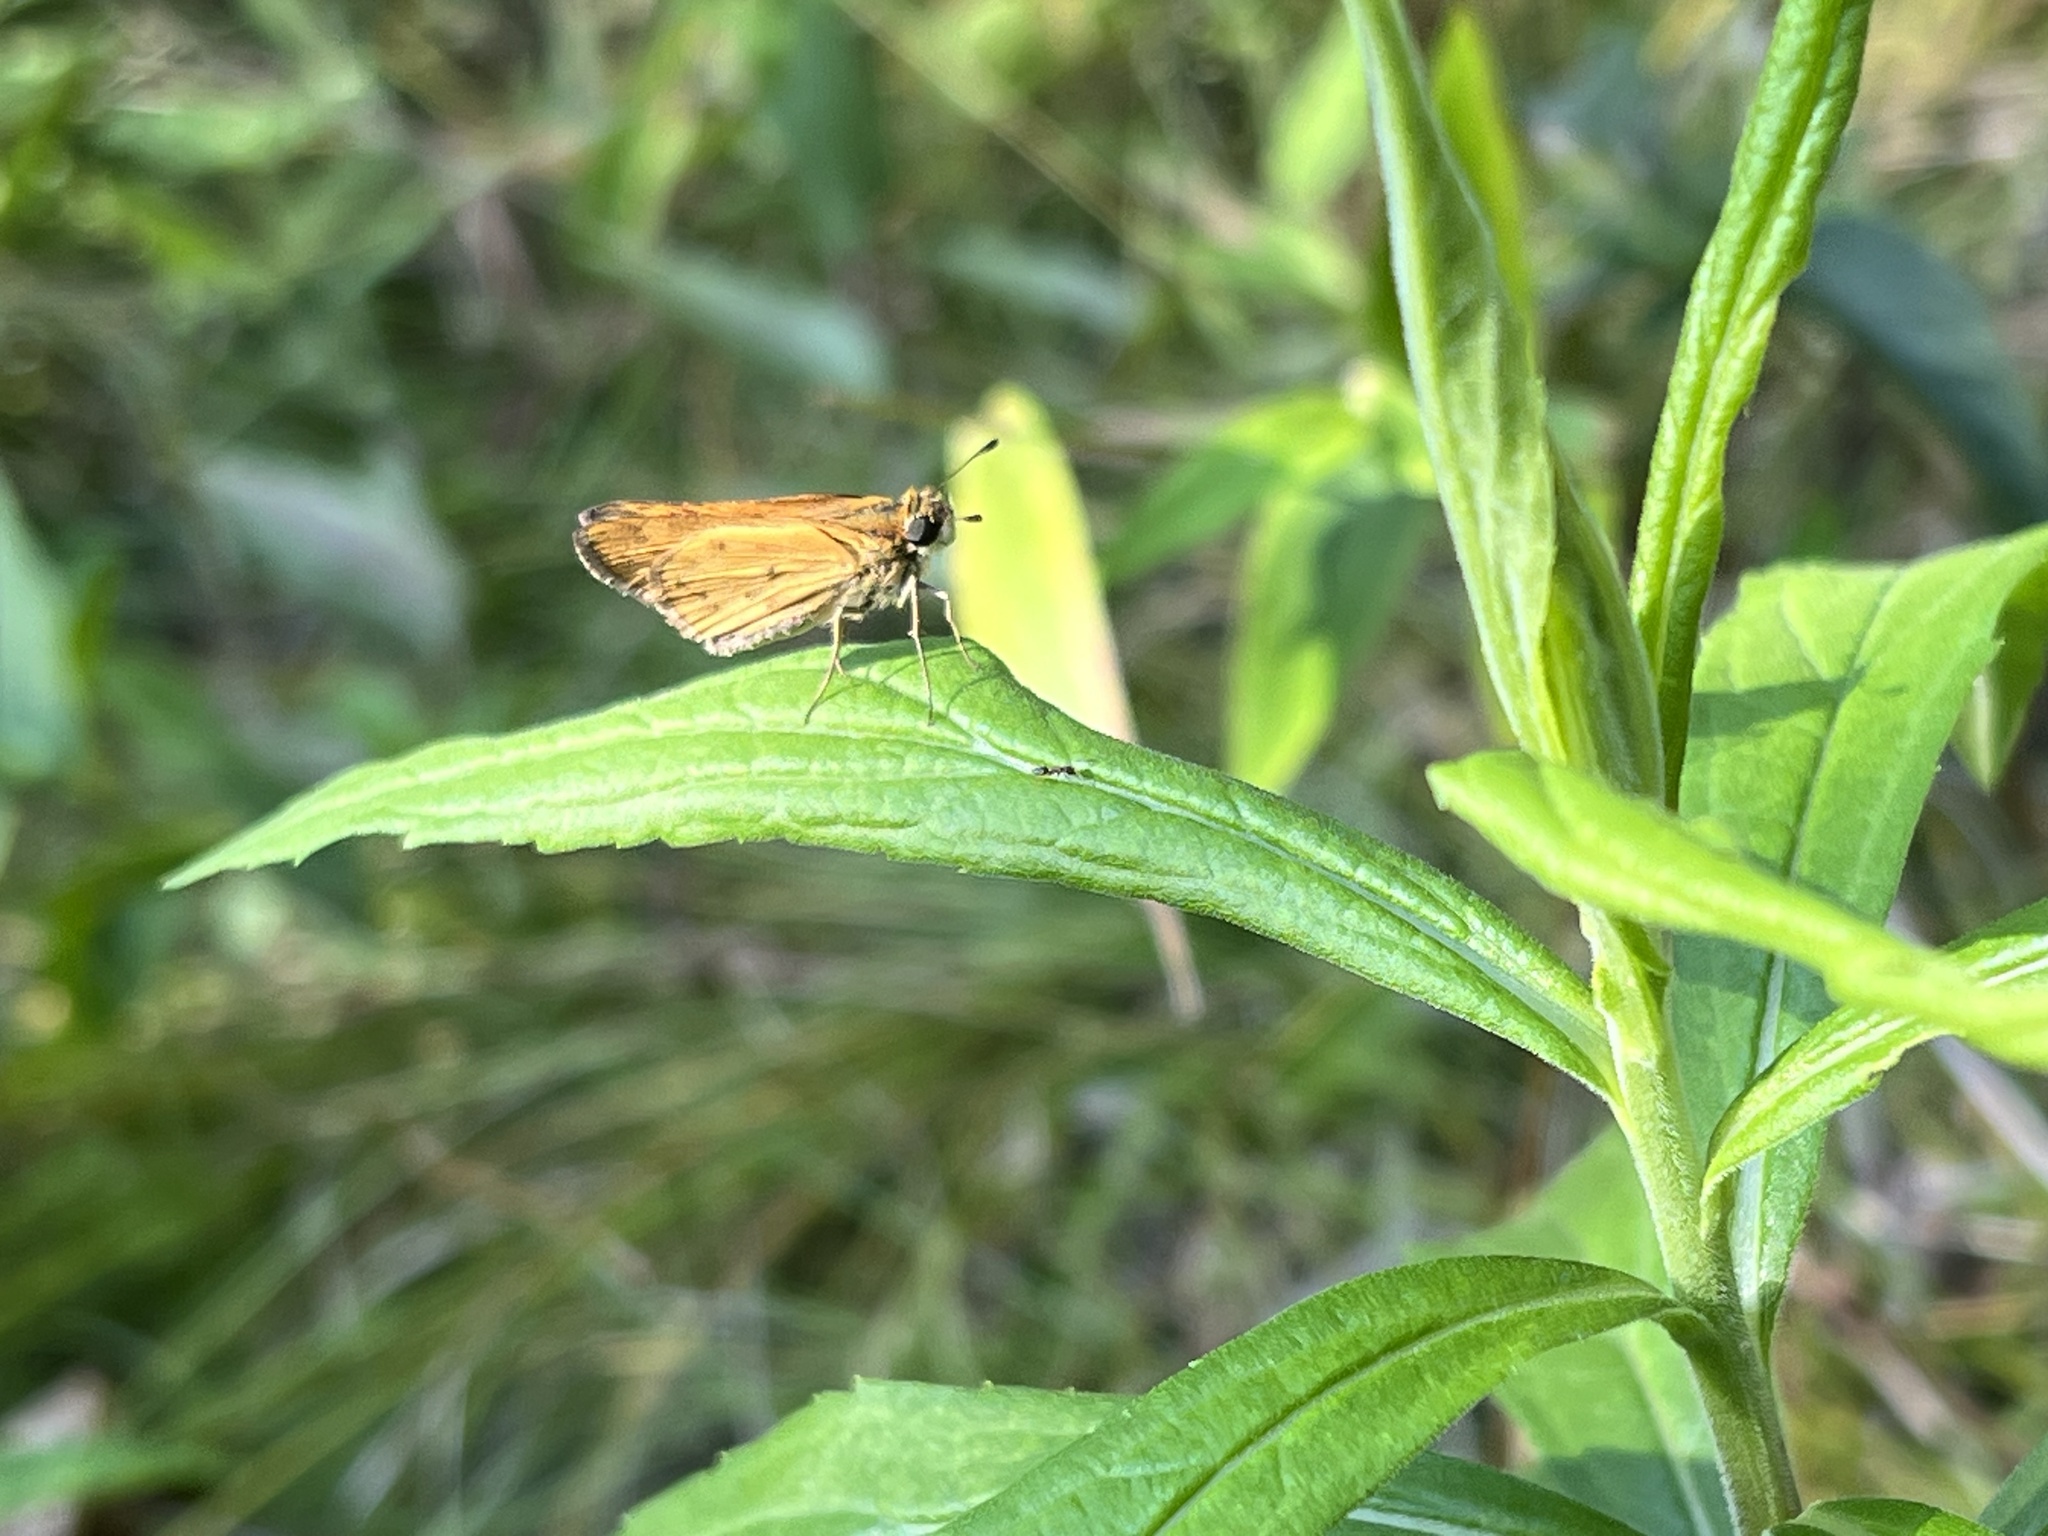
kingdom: Animalia
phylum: Arthropoda
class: Insecta
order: Lepidoptera
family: Hesperiidae
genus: Hylephila
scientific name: Hylephila phyleus
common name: Fiery skipper
